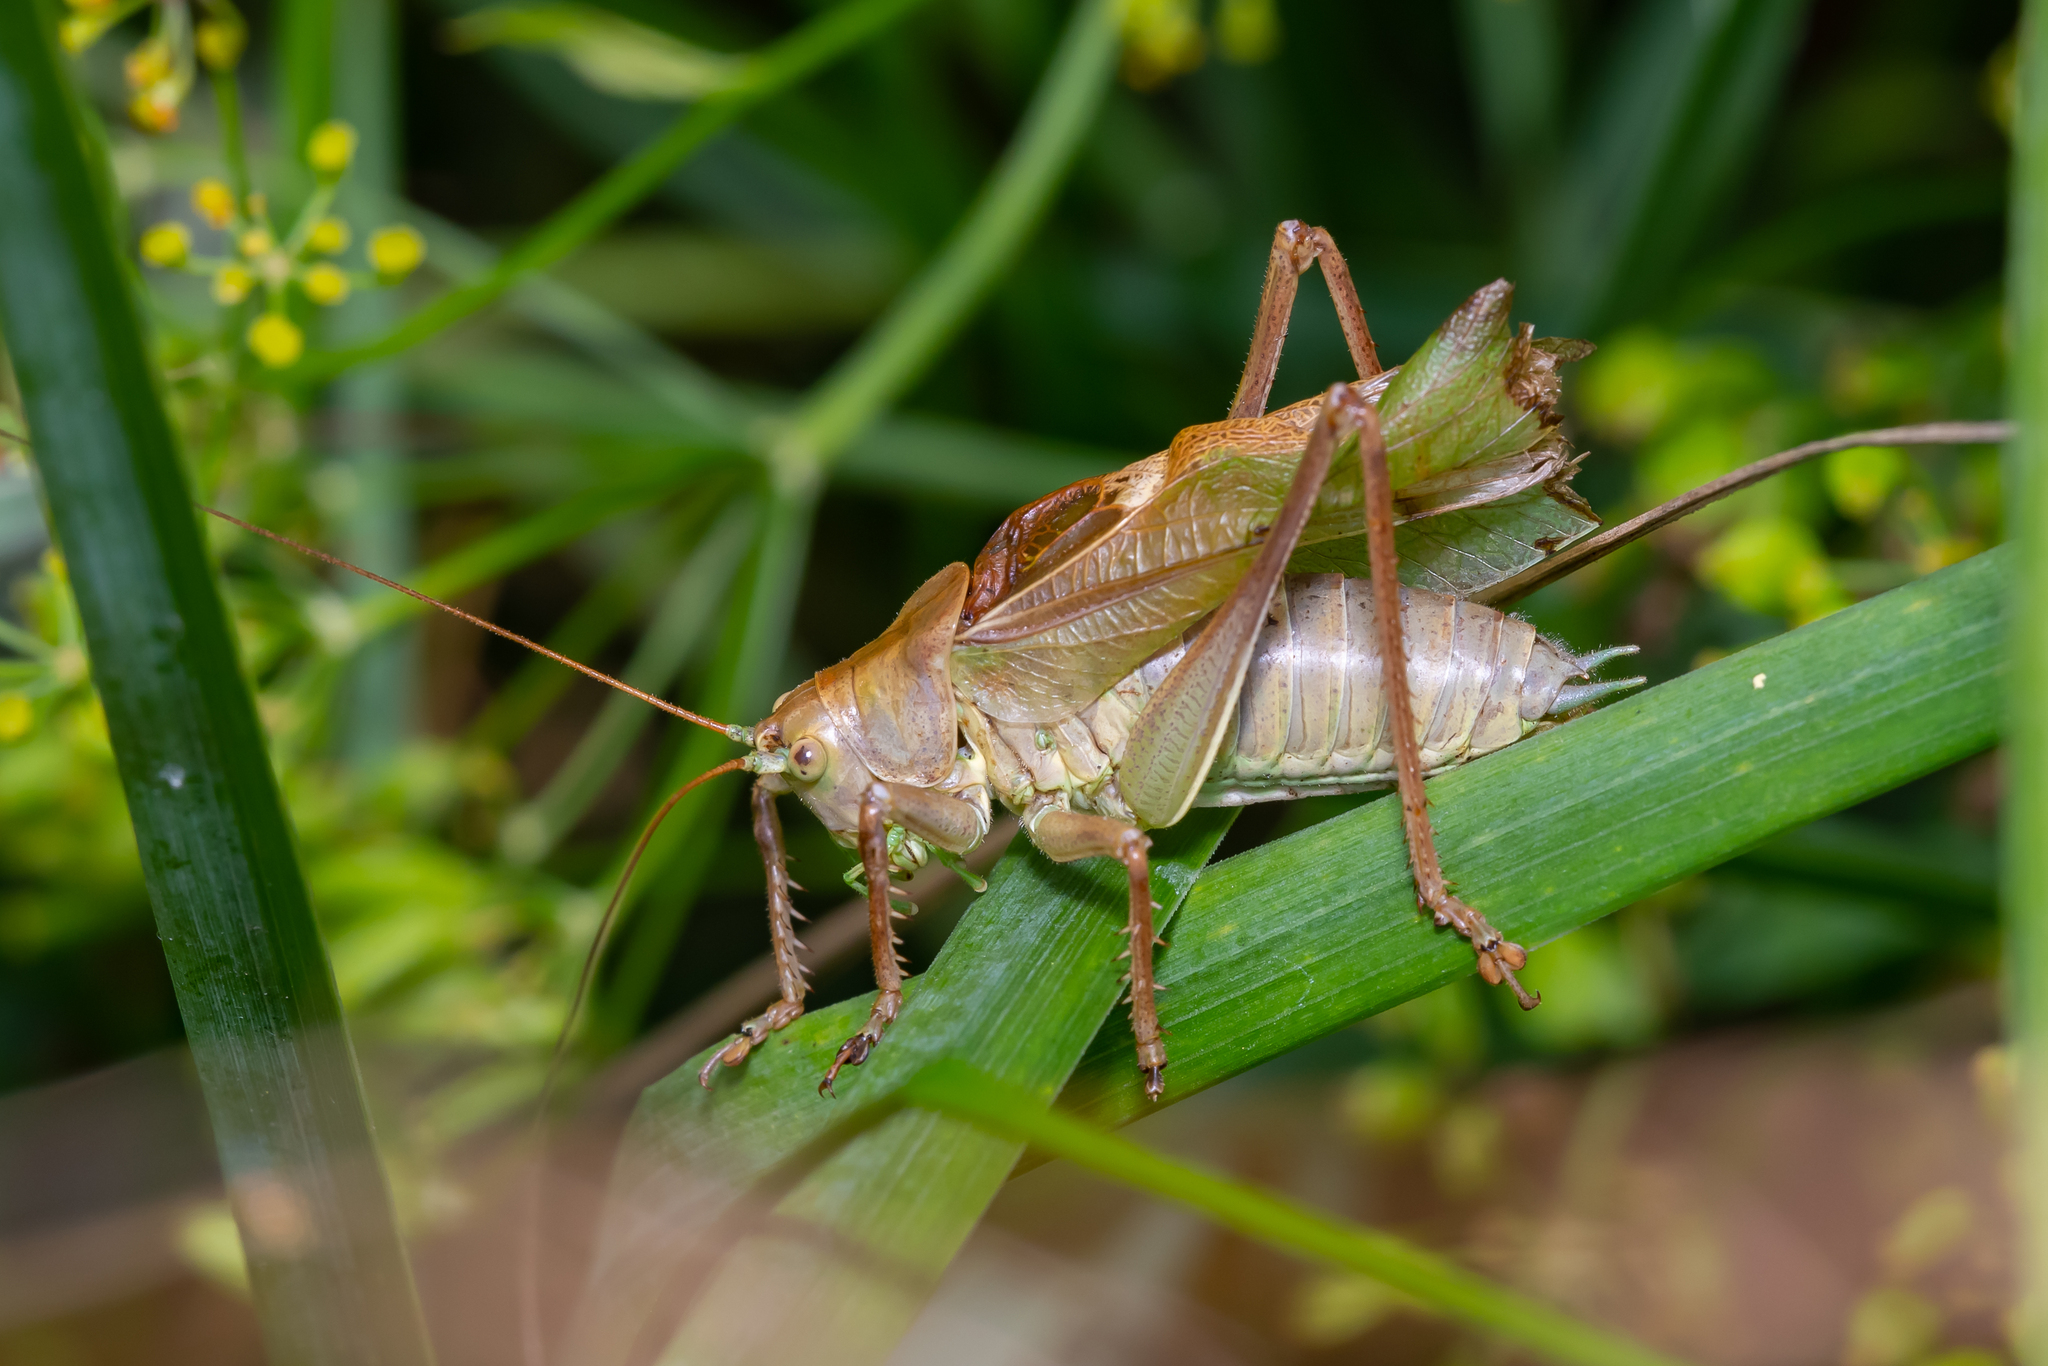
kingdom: Animalia
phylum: Arthropoda
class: Insecta
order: Orthoptera
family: Tettigoniidae
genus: Tettigonia
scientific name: Tettigonia cantans
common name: Upland green bush-cricket
